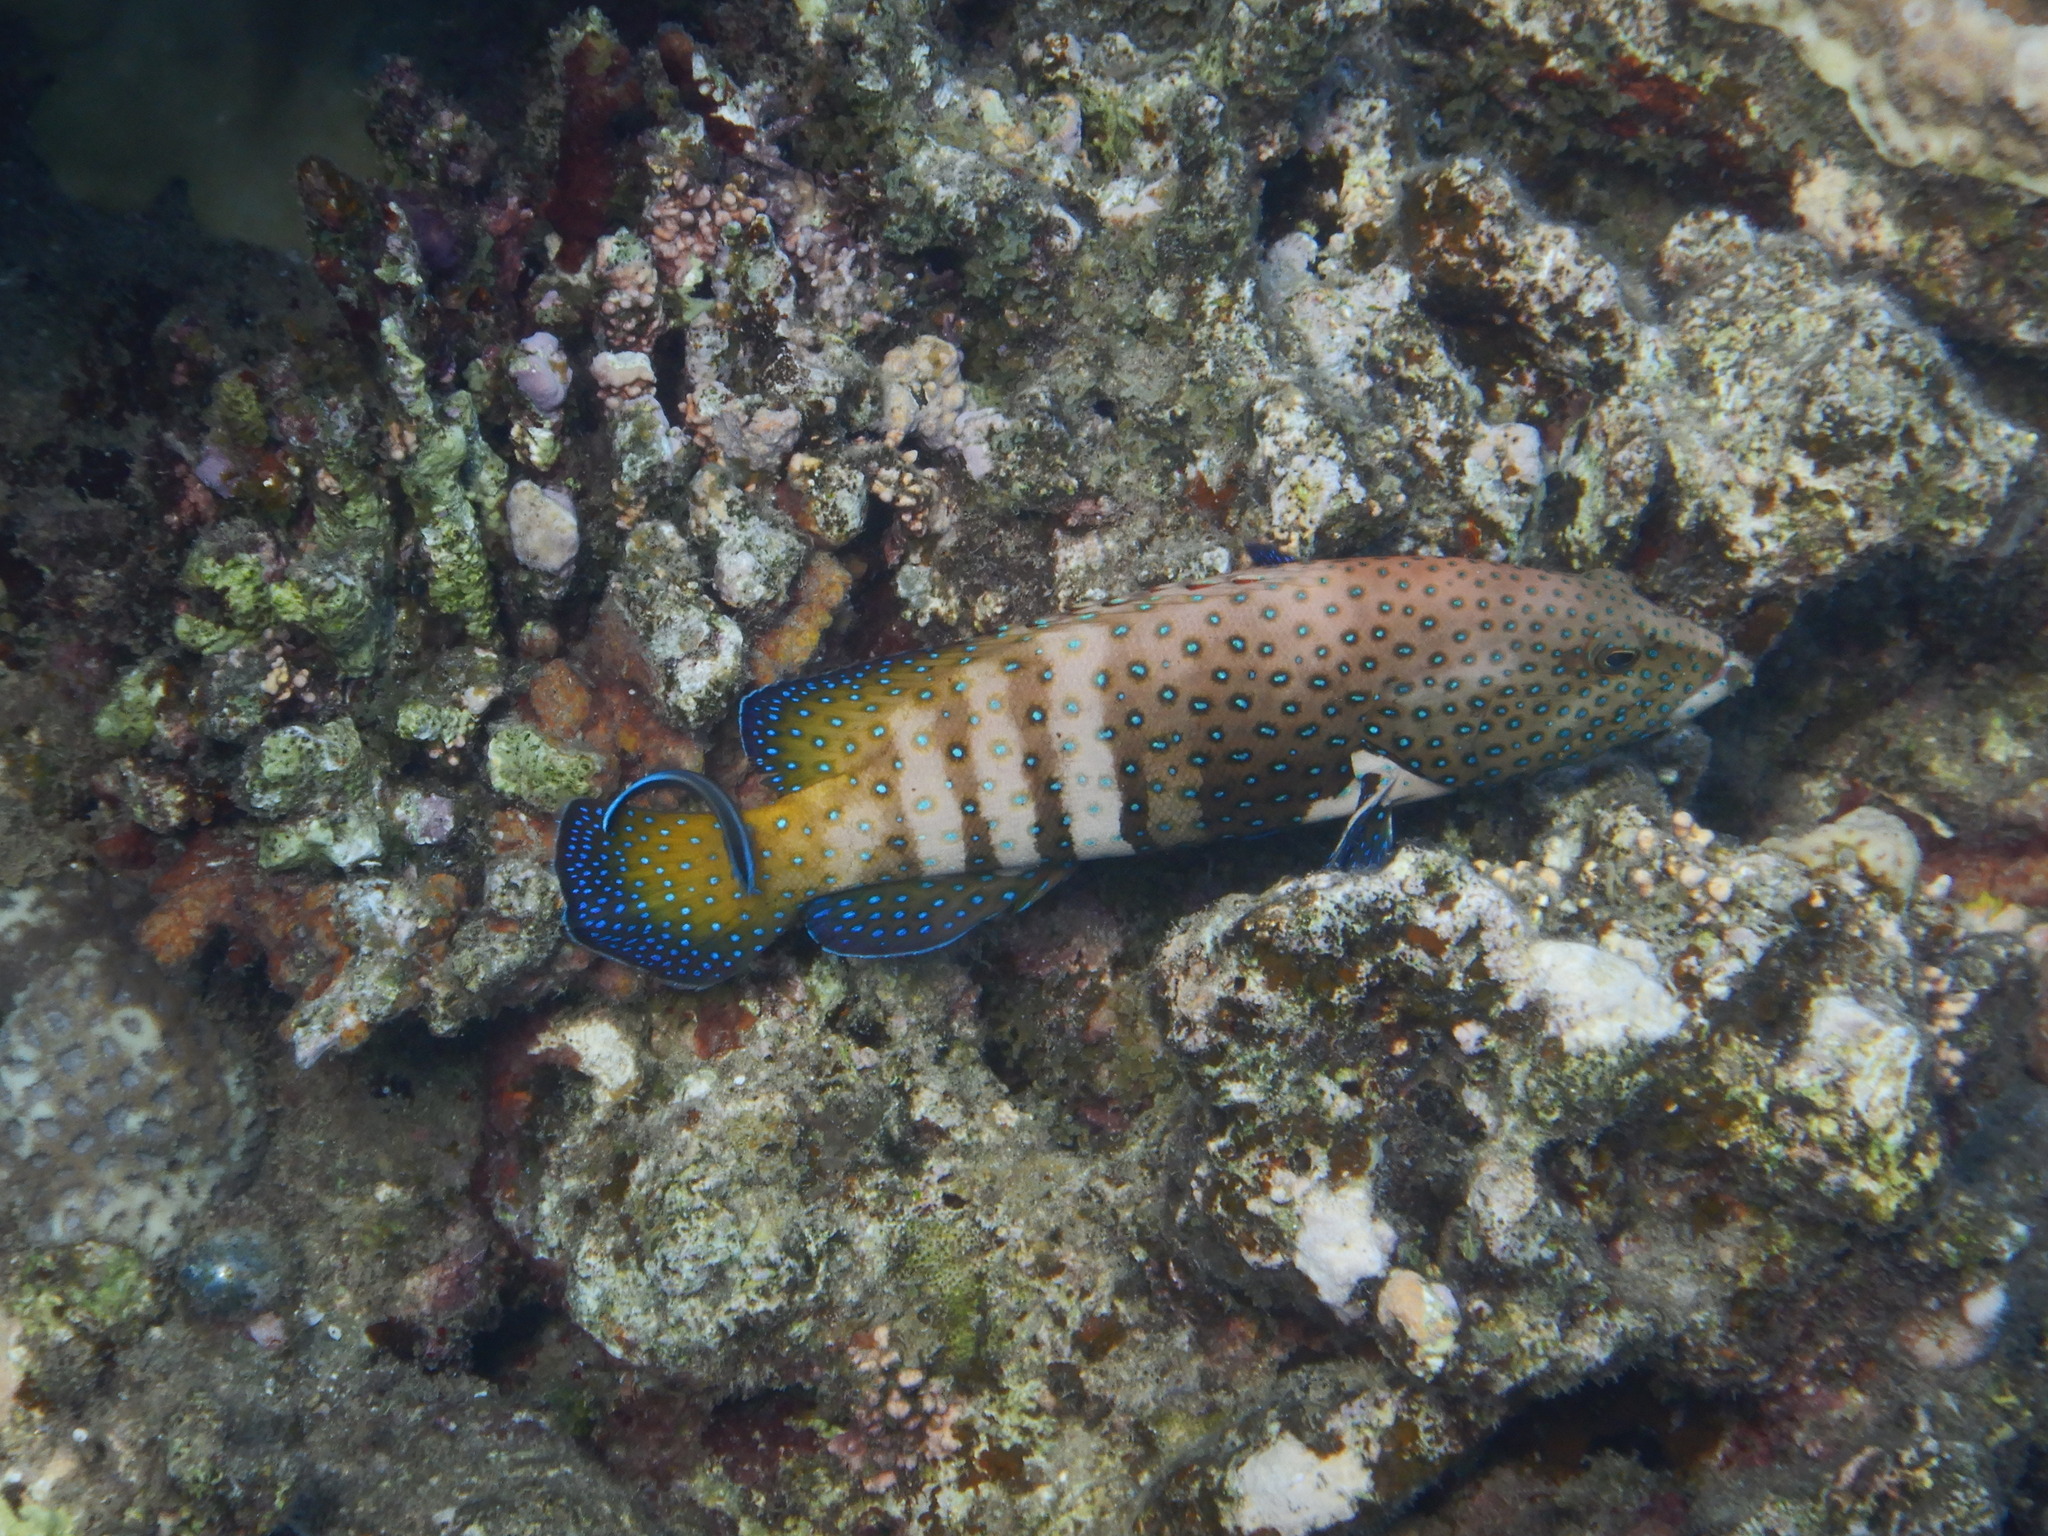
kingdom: Animalia
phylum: Chordata
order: Perciformes
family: Serranidae
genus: Cephalopholis
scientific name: Cephalopholis argus
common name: Peacock grouper
